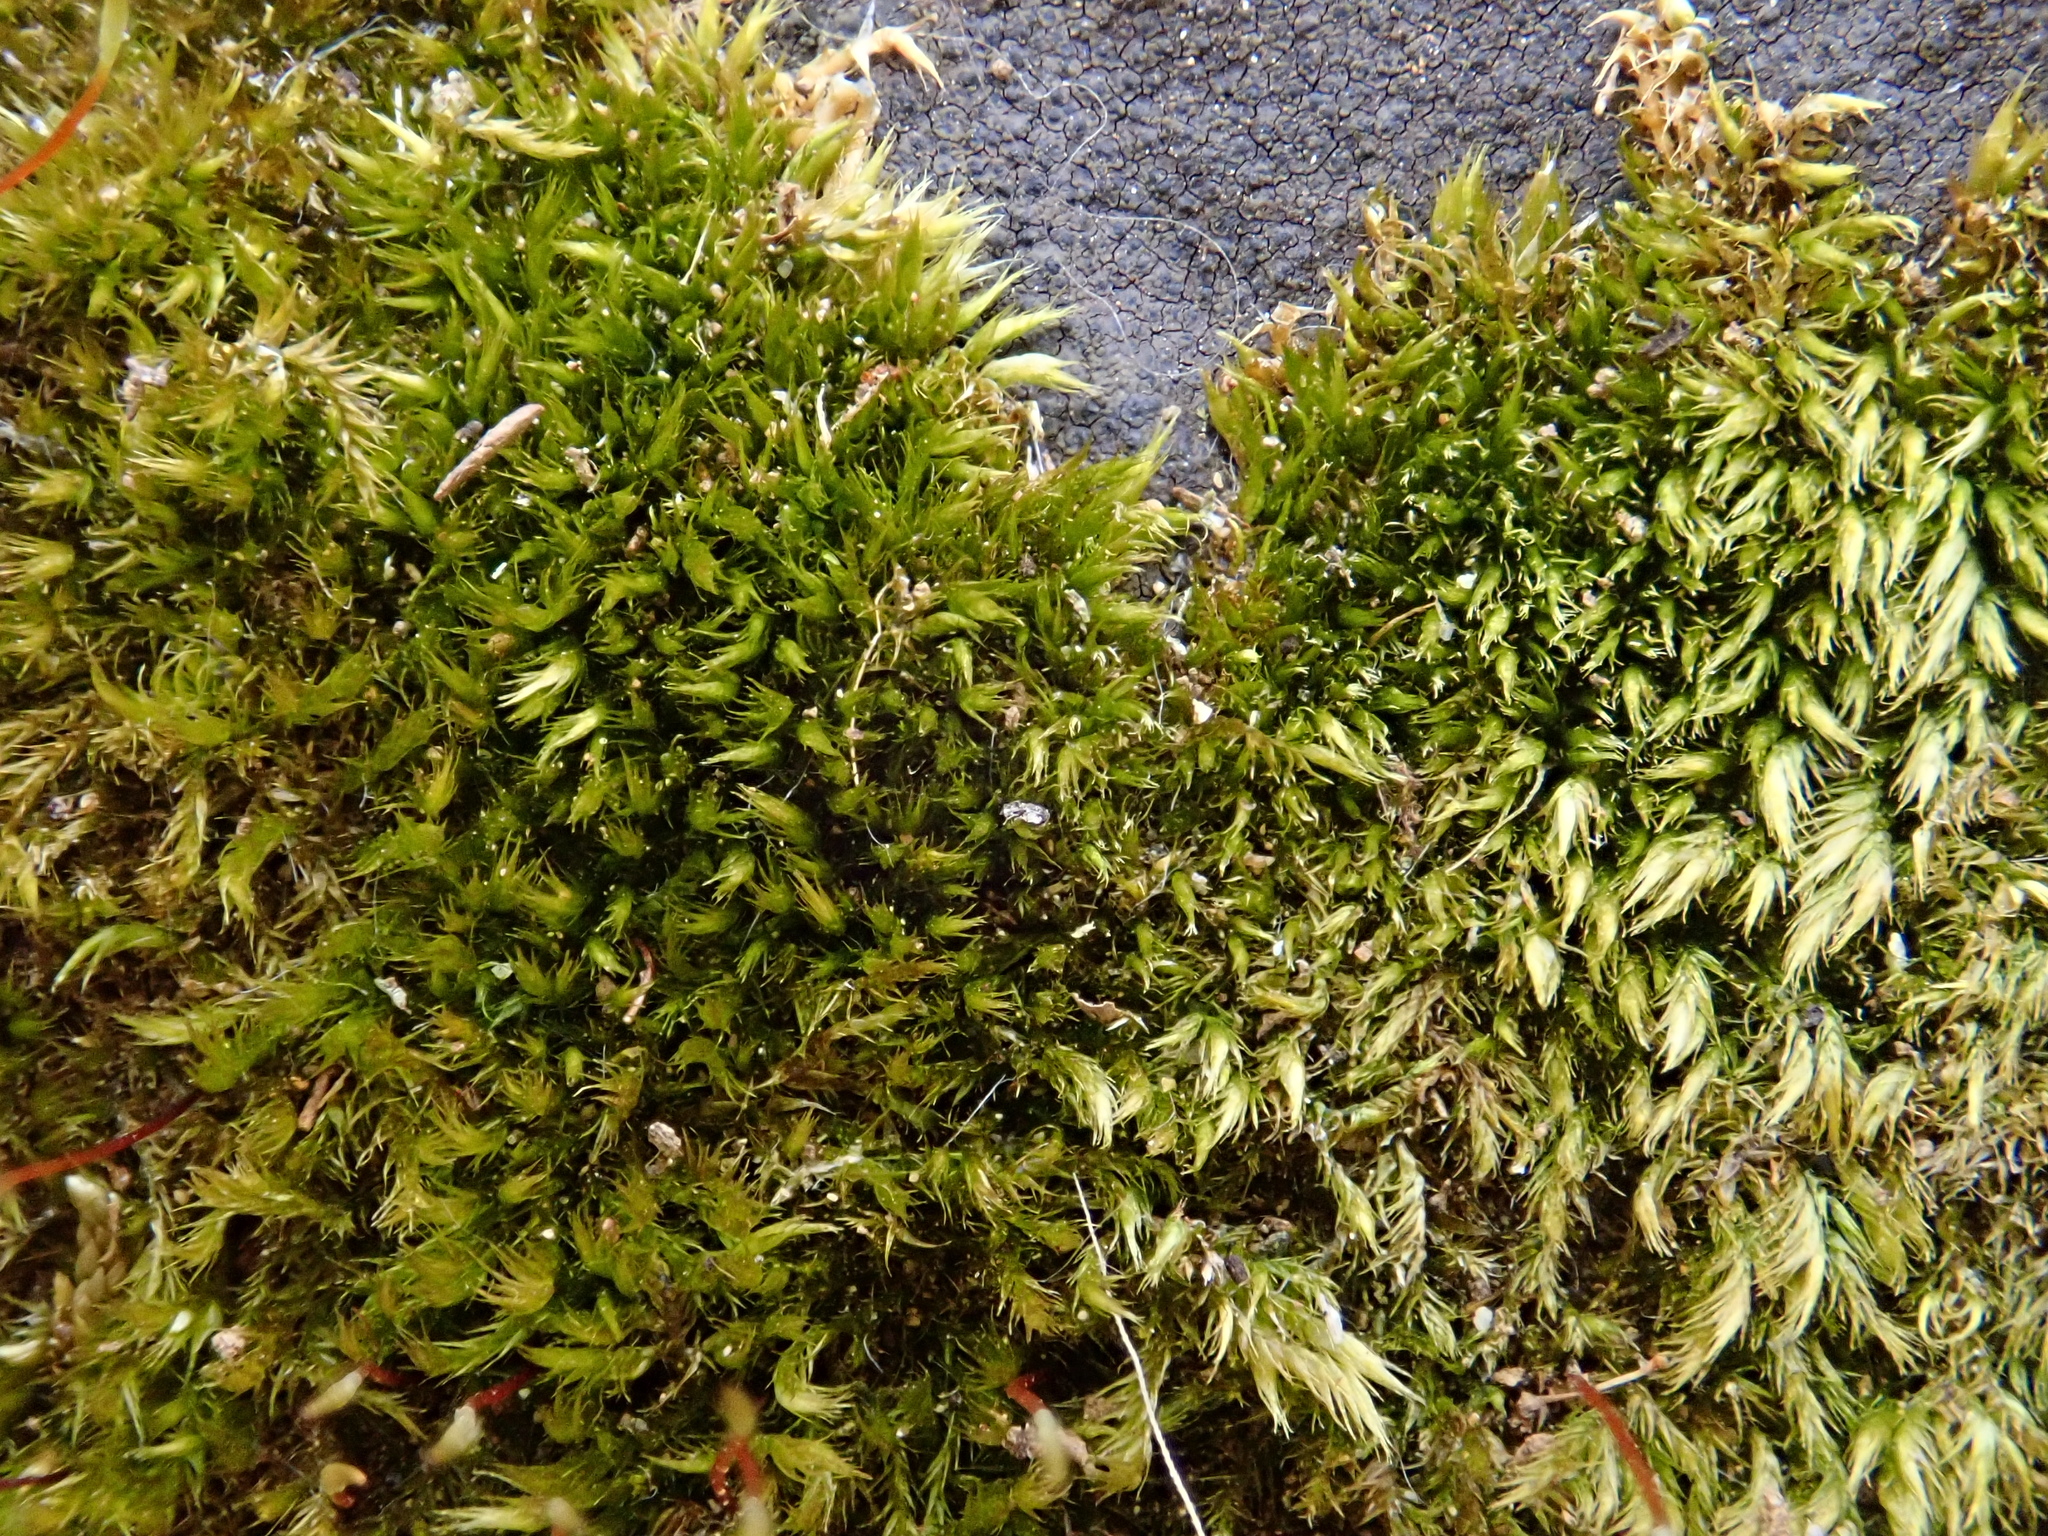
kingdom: Plantae
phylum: Bryophyta
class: Bryopsida
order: Hypnales
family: Pylaisiaceae
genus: Homomallium
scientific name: Homomallium incurvatum
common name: Incurved feather-moss
